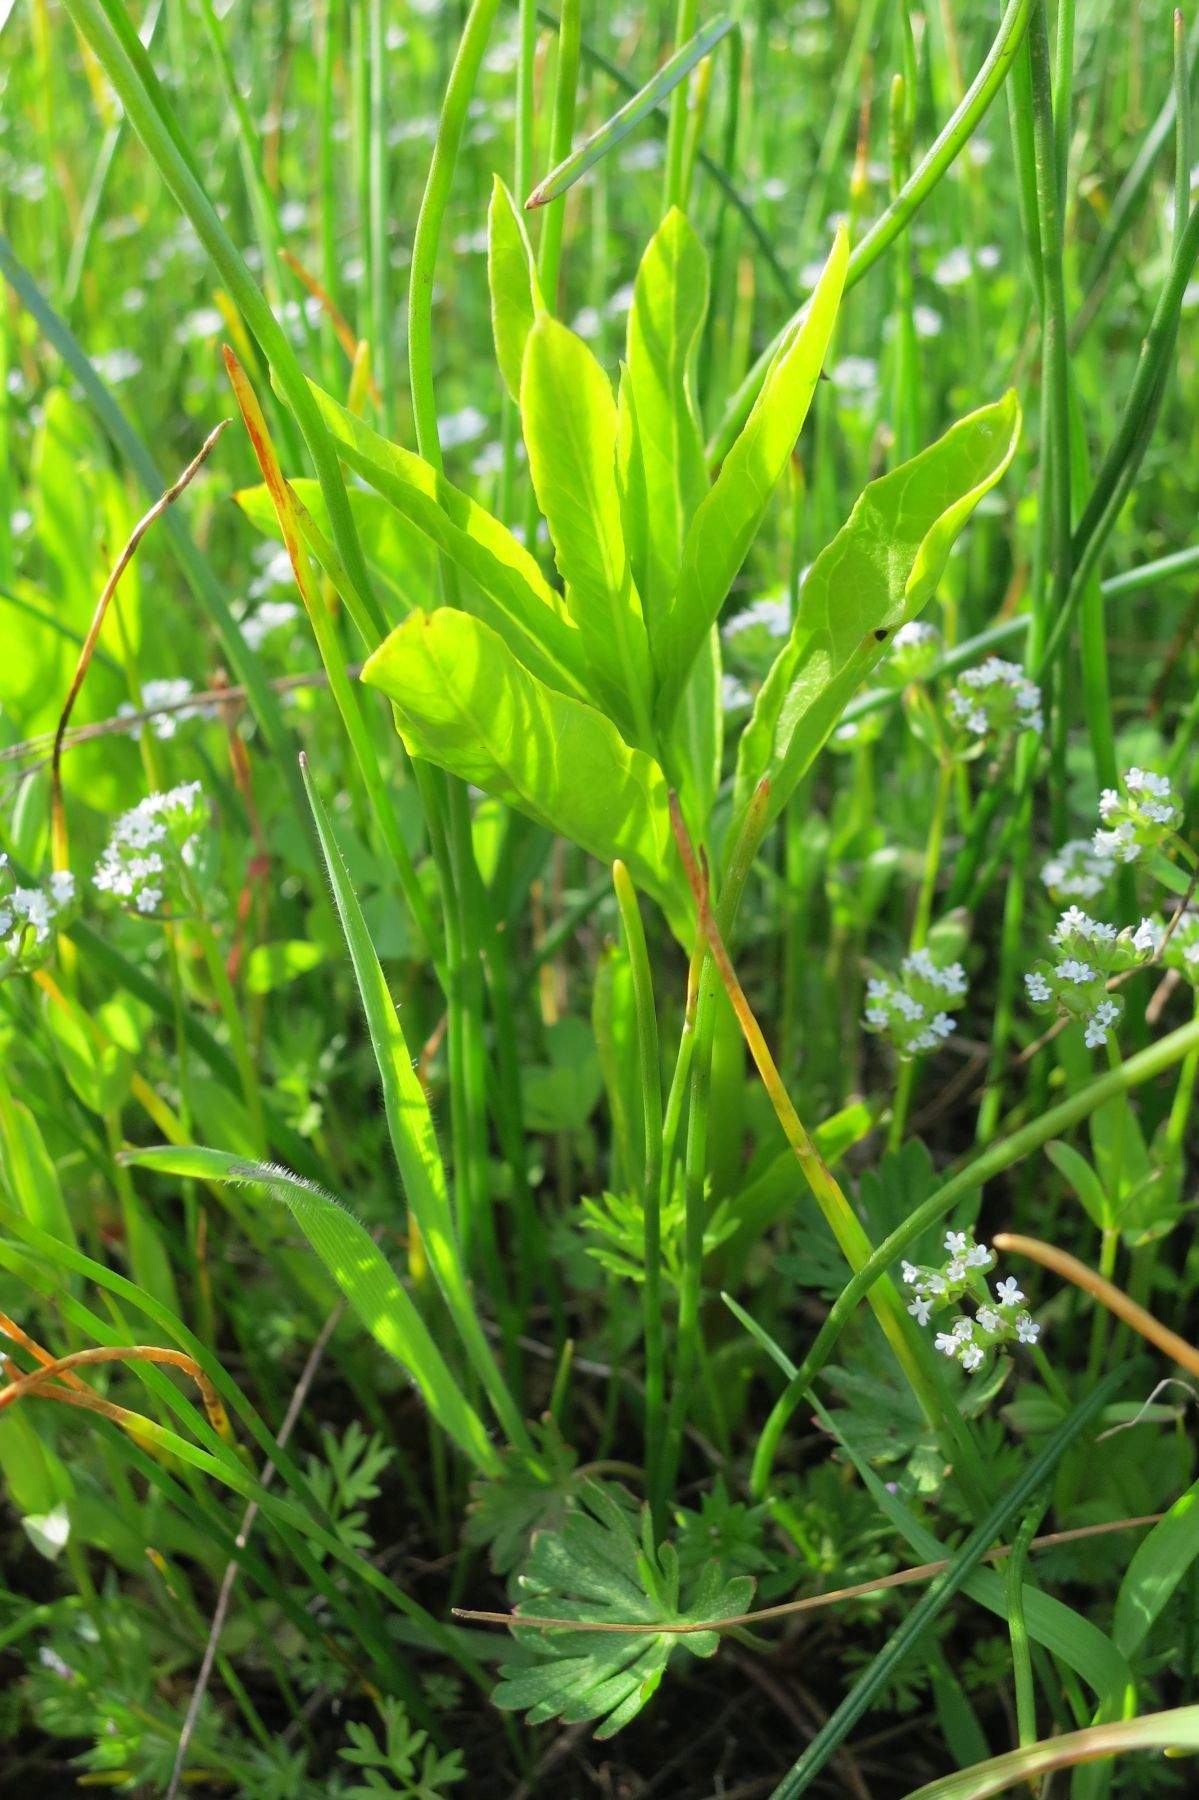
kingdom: Plantae
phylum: Tracheophyta
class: Magnoliopsida
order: Gentianales
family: Apocynaceae
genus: Asclepias
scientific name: Asclepias fascicularis
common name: Mexican milkweed
